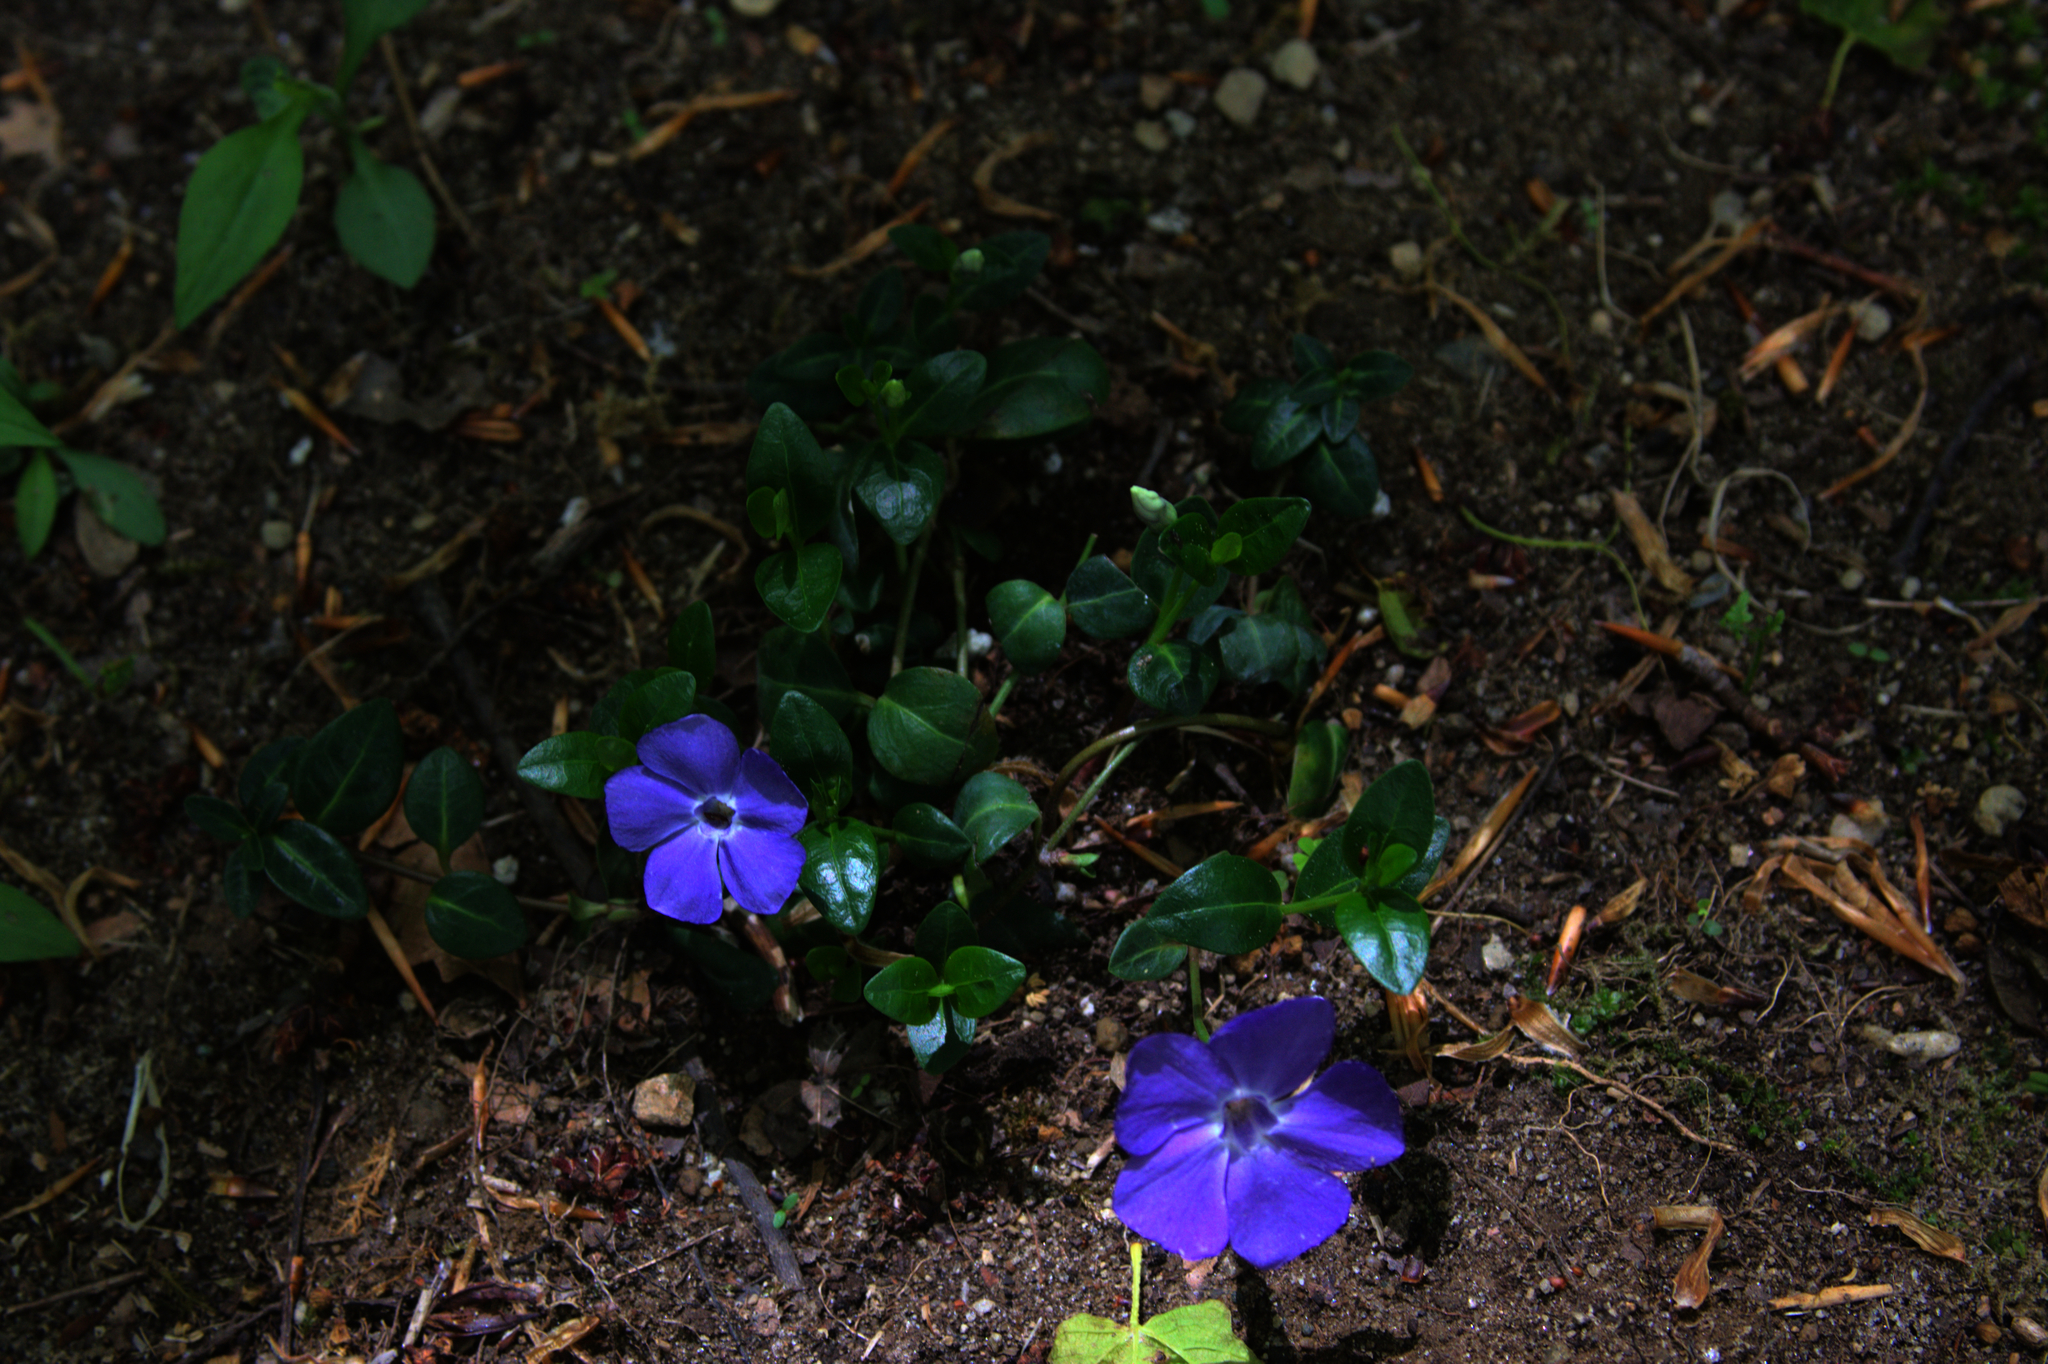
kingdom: Plantae
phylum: Tracheophyta
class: Magnoliopsida
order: Gentianales
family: Apocynaceae
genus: Vinca
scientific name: Vinca minor
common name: Lesser periwinkle
